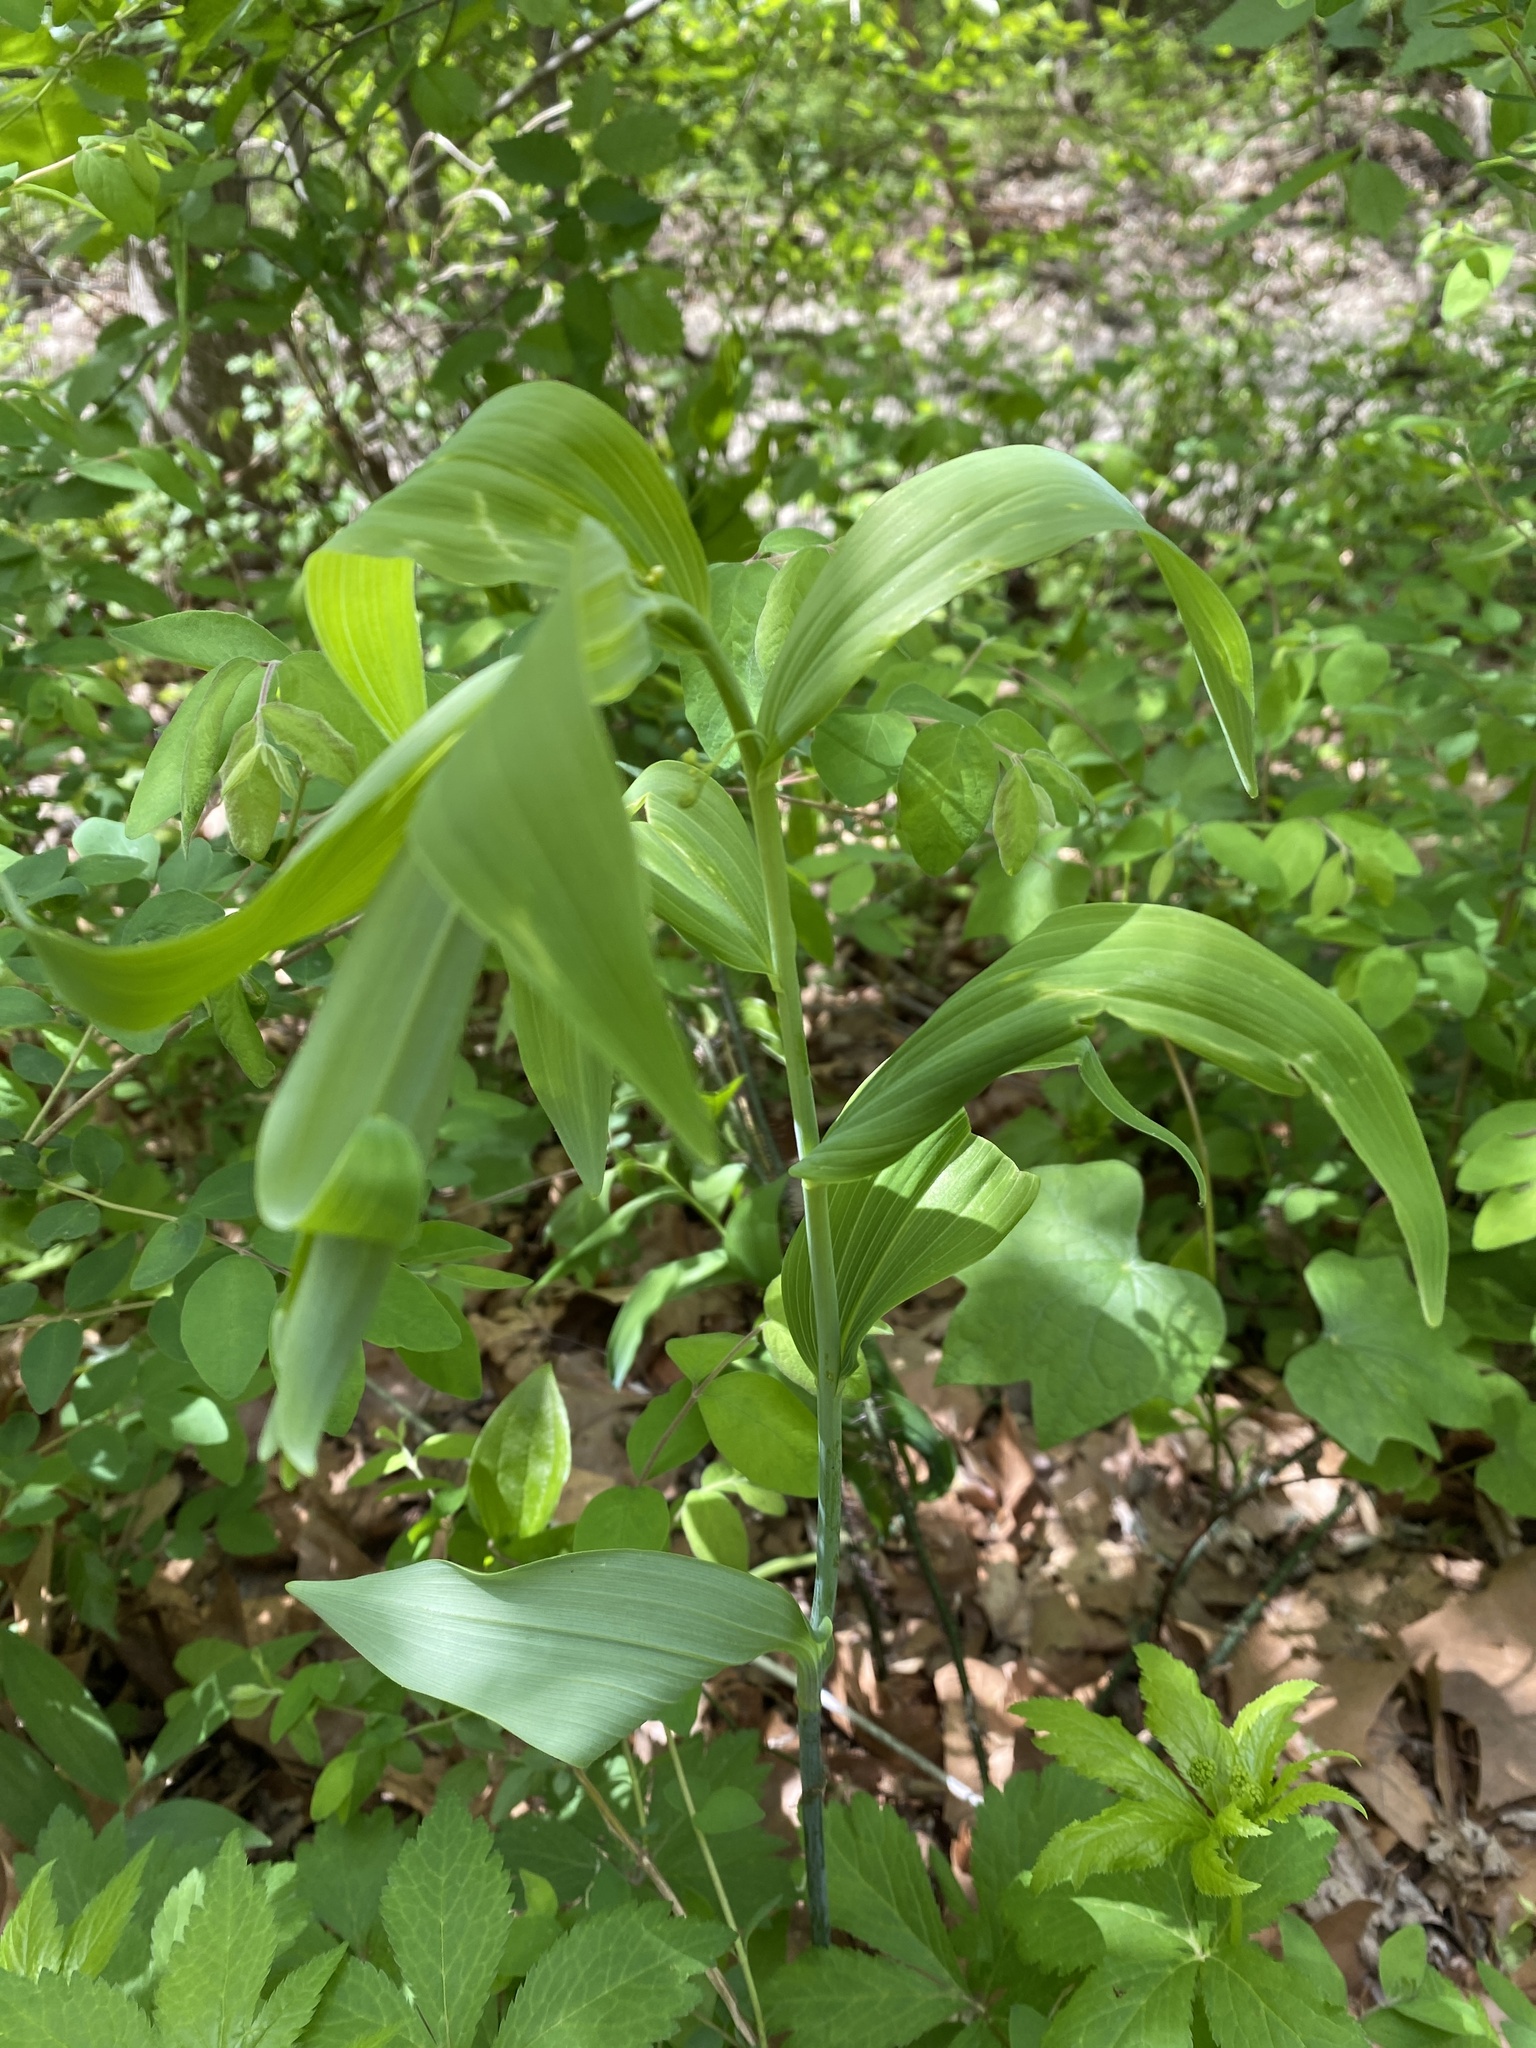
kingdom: Plantae
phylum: Tracheophyta
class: Liliopsida
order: Asparagales
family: Asparagaceae
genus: Polygonatum
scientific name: Polygonatum biflorum
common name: American solomon's-seal
